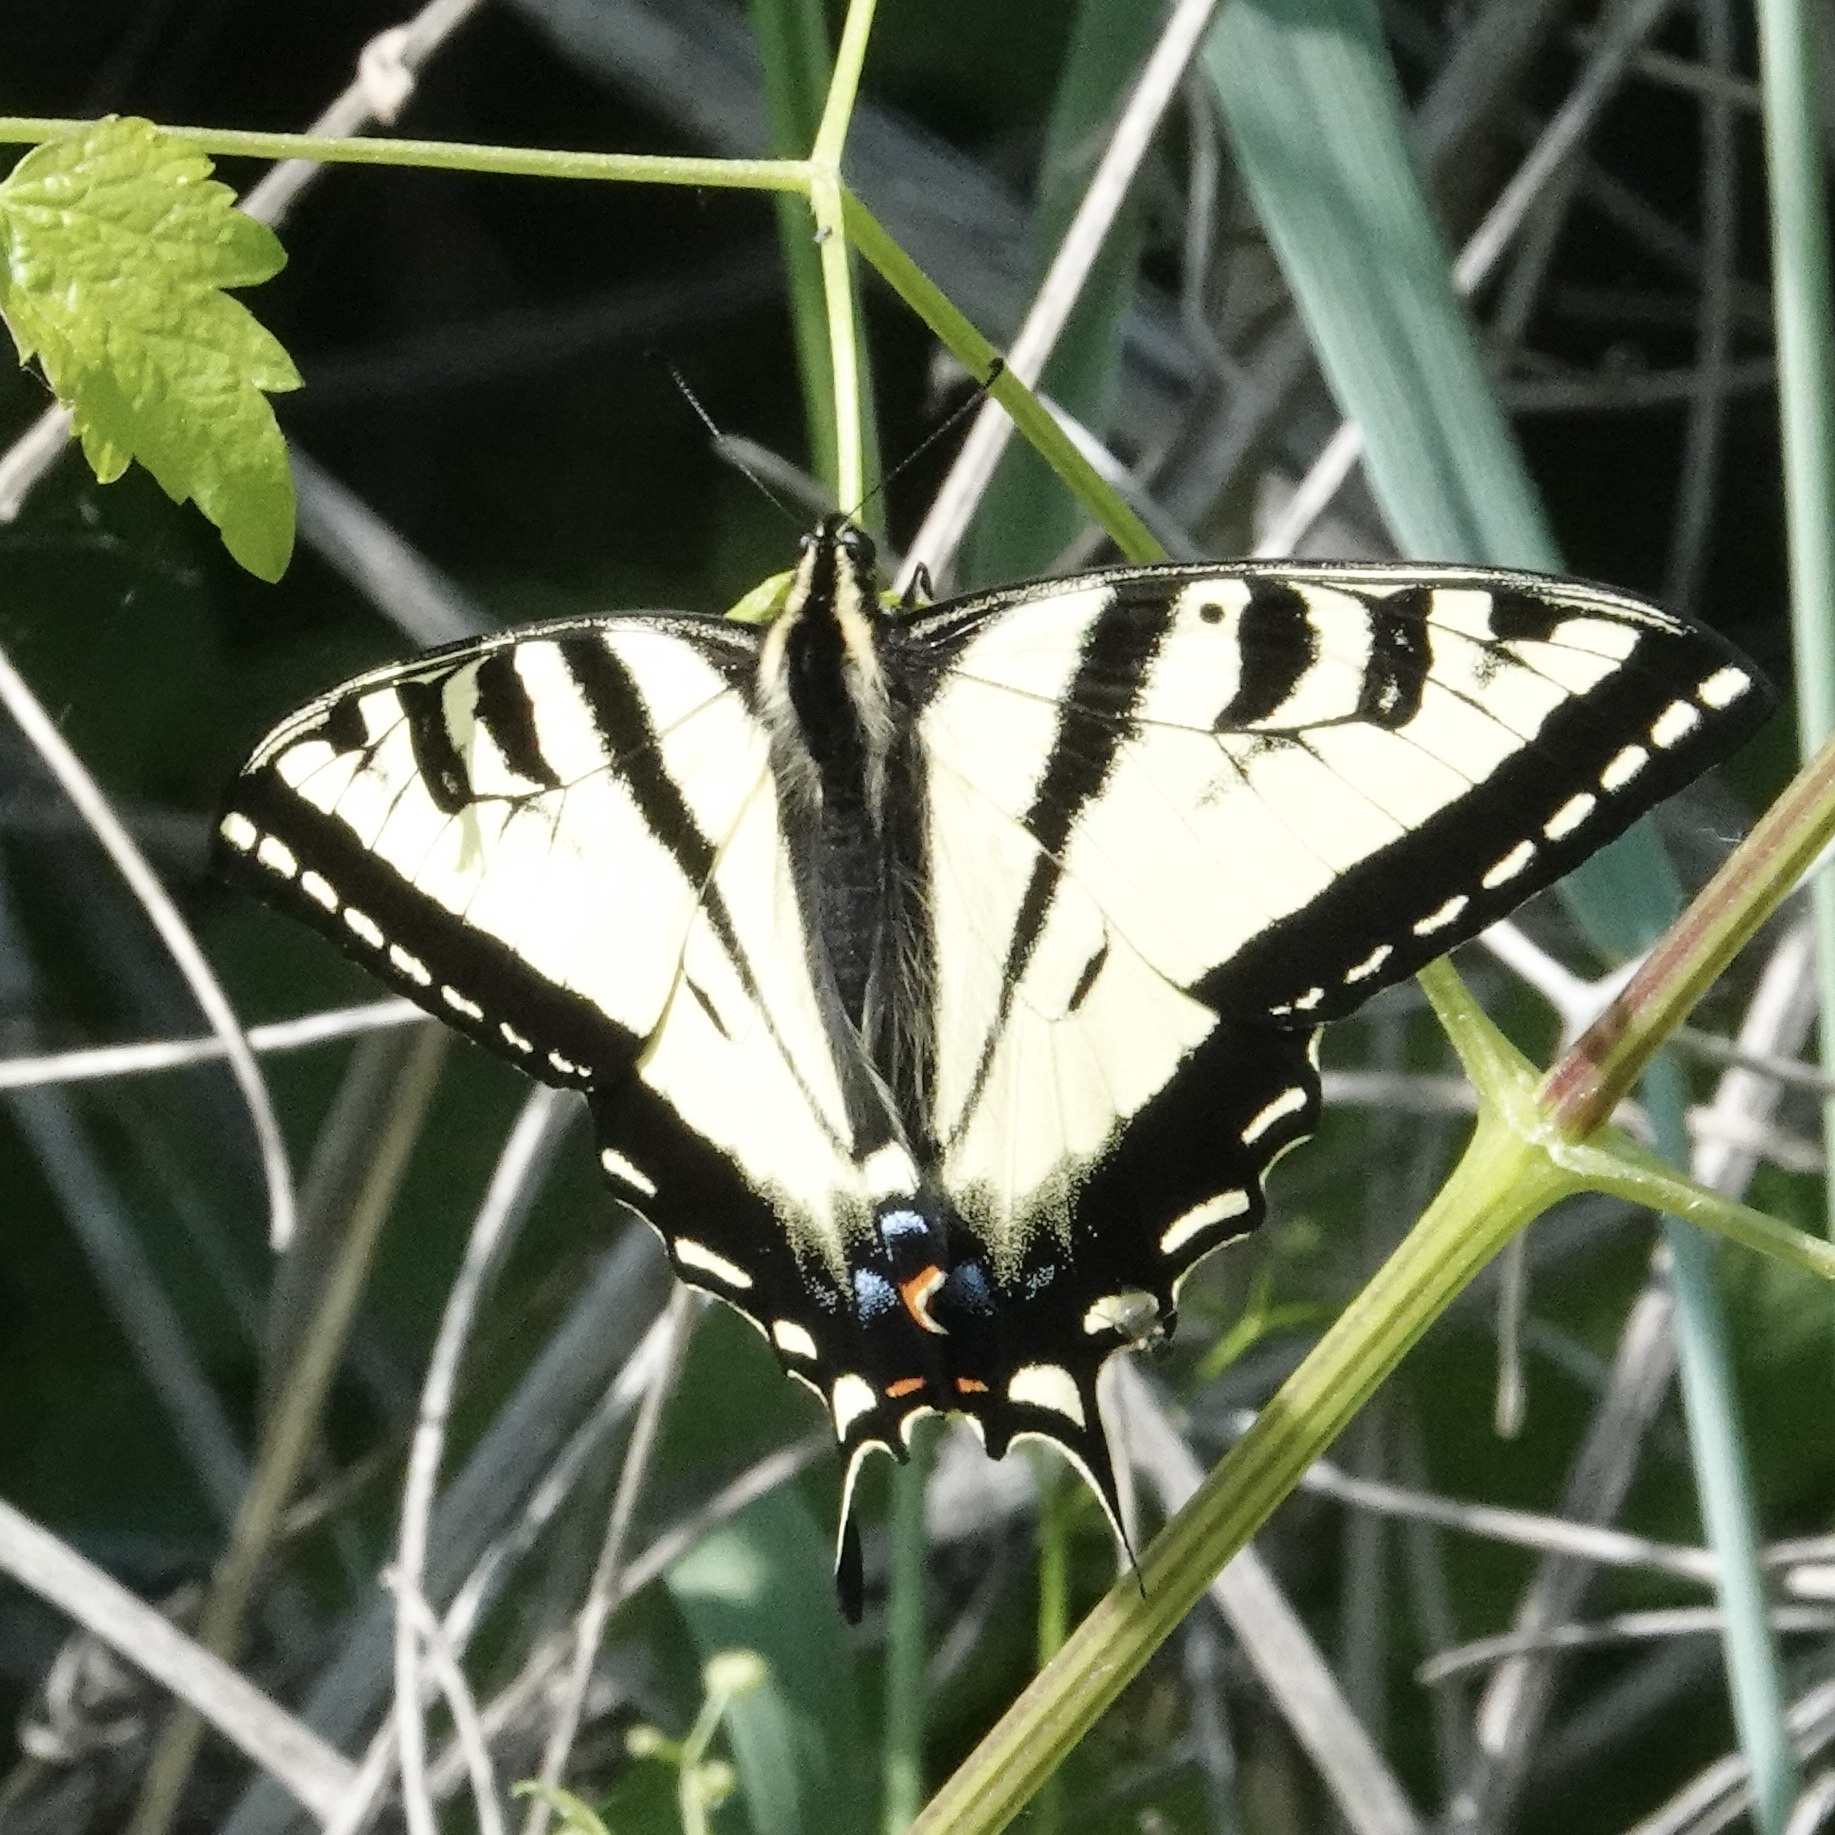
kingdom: Animalia
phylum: Arthropoda
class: Insecta
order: Lepidoptera
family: Papilionidae
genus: Papilio
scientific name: Papilio rutulus
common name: Western tiger swallowtail
